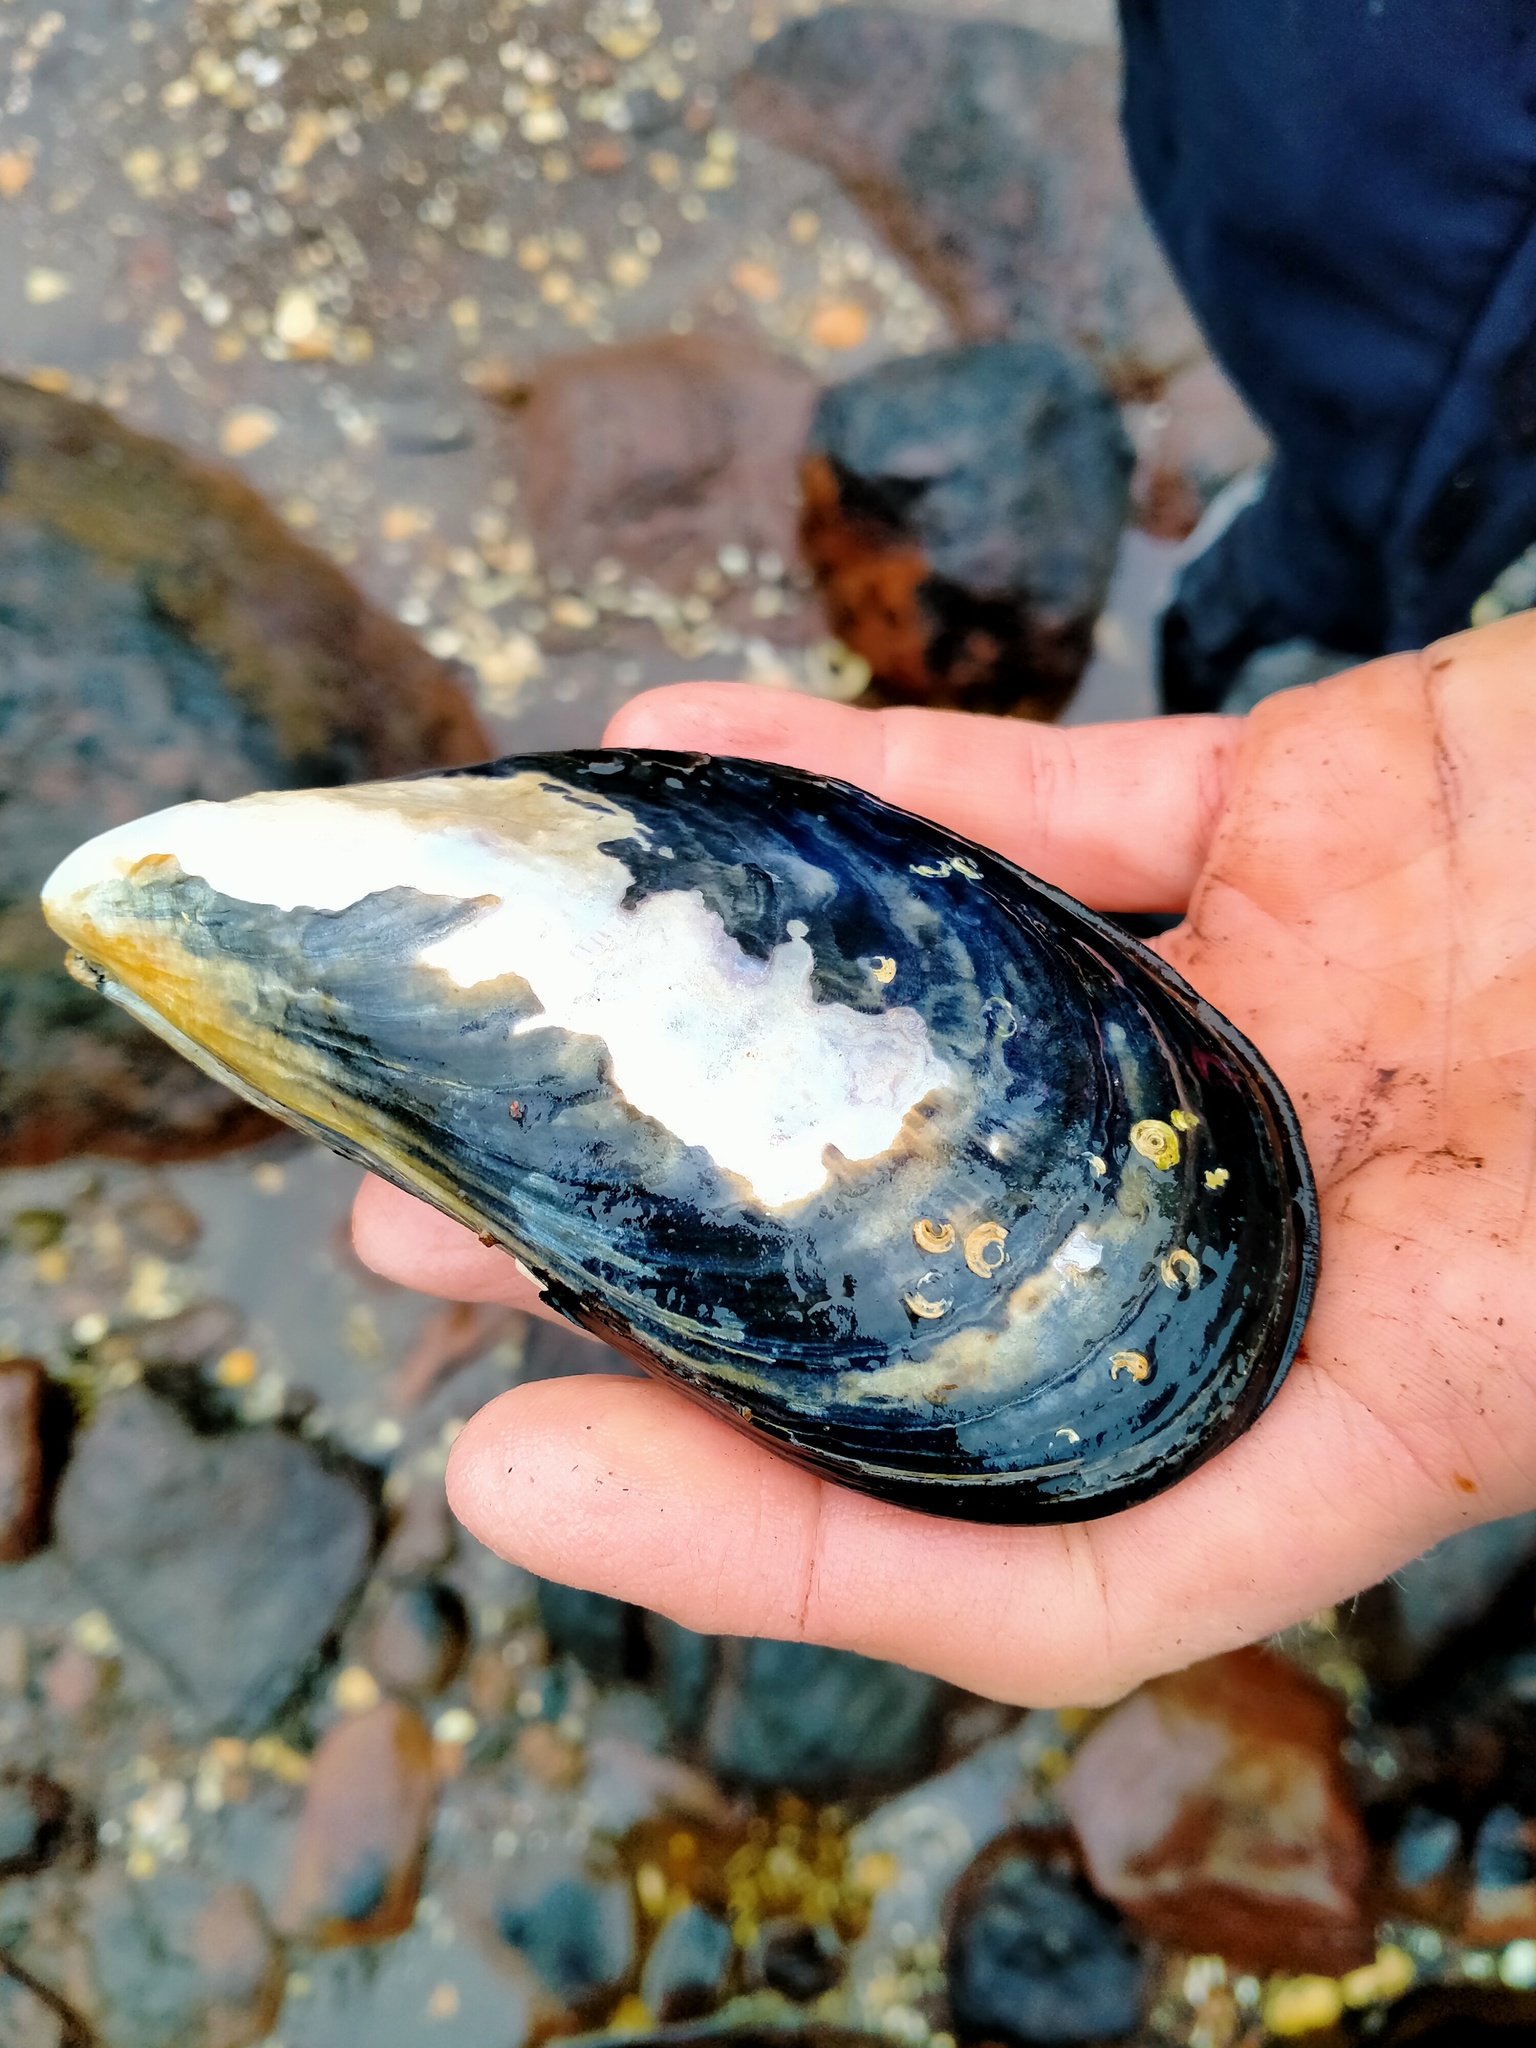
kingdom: Animalia
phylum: Mollusca
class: Bivalvia
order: Mytilida
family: Mytilidae
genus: Mytilus
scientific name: Mytilus planulatus
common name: Australian mussel
